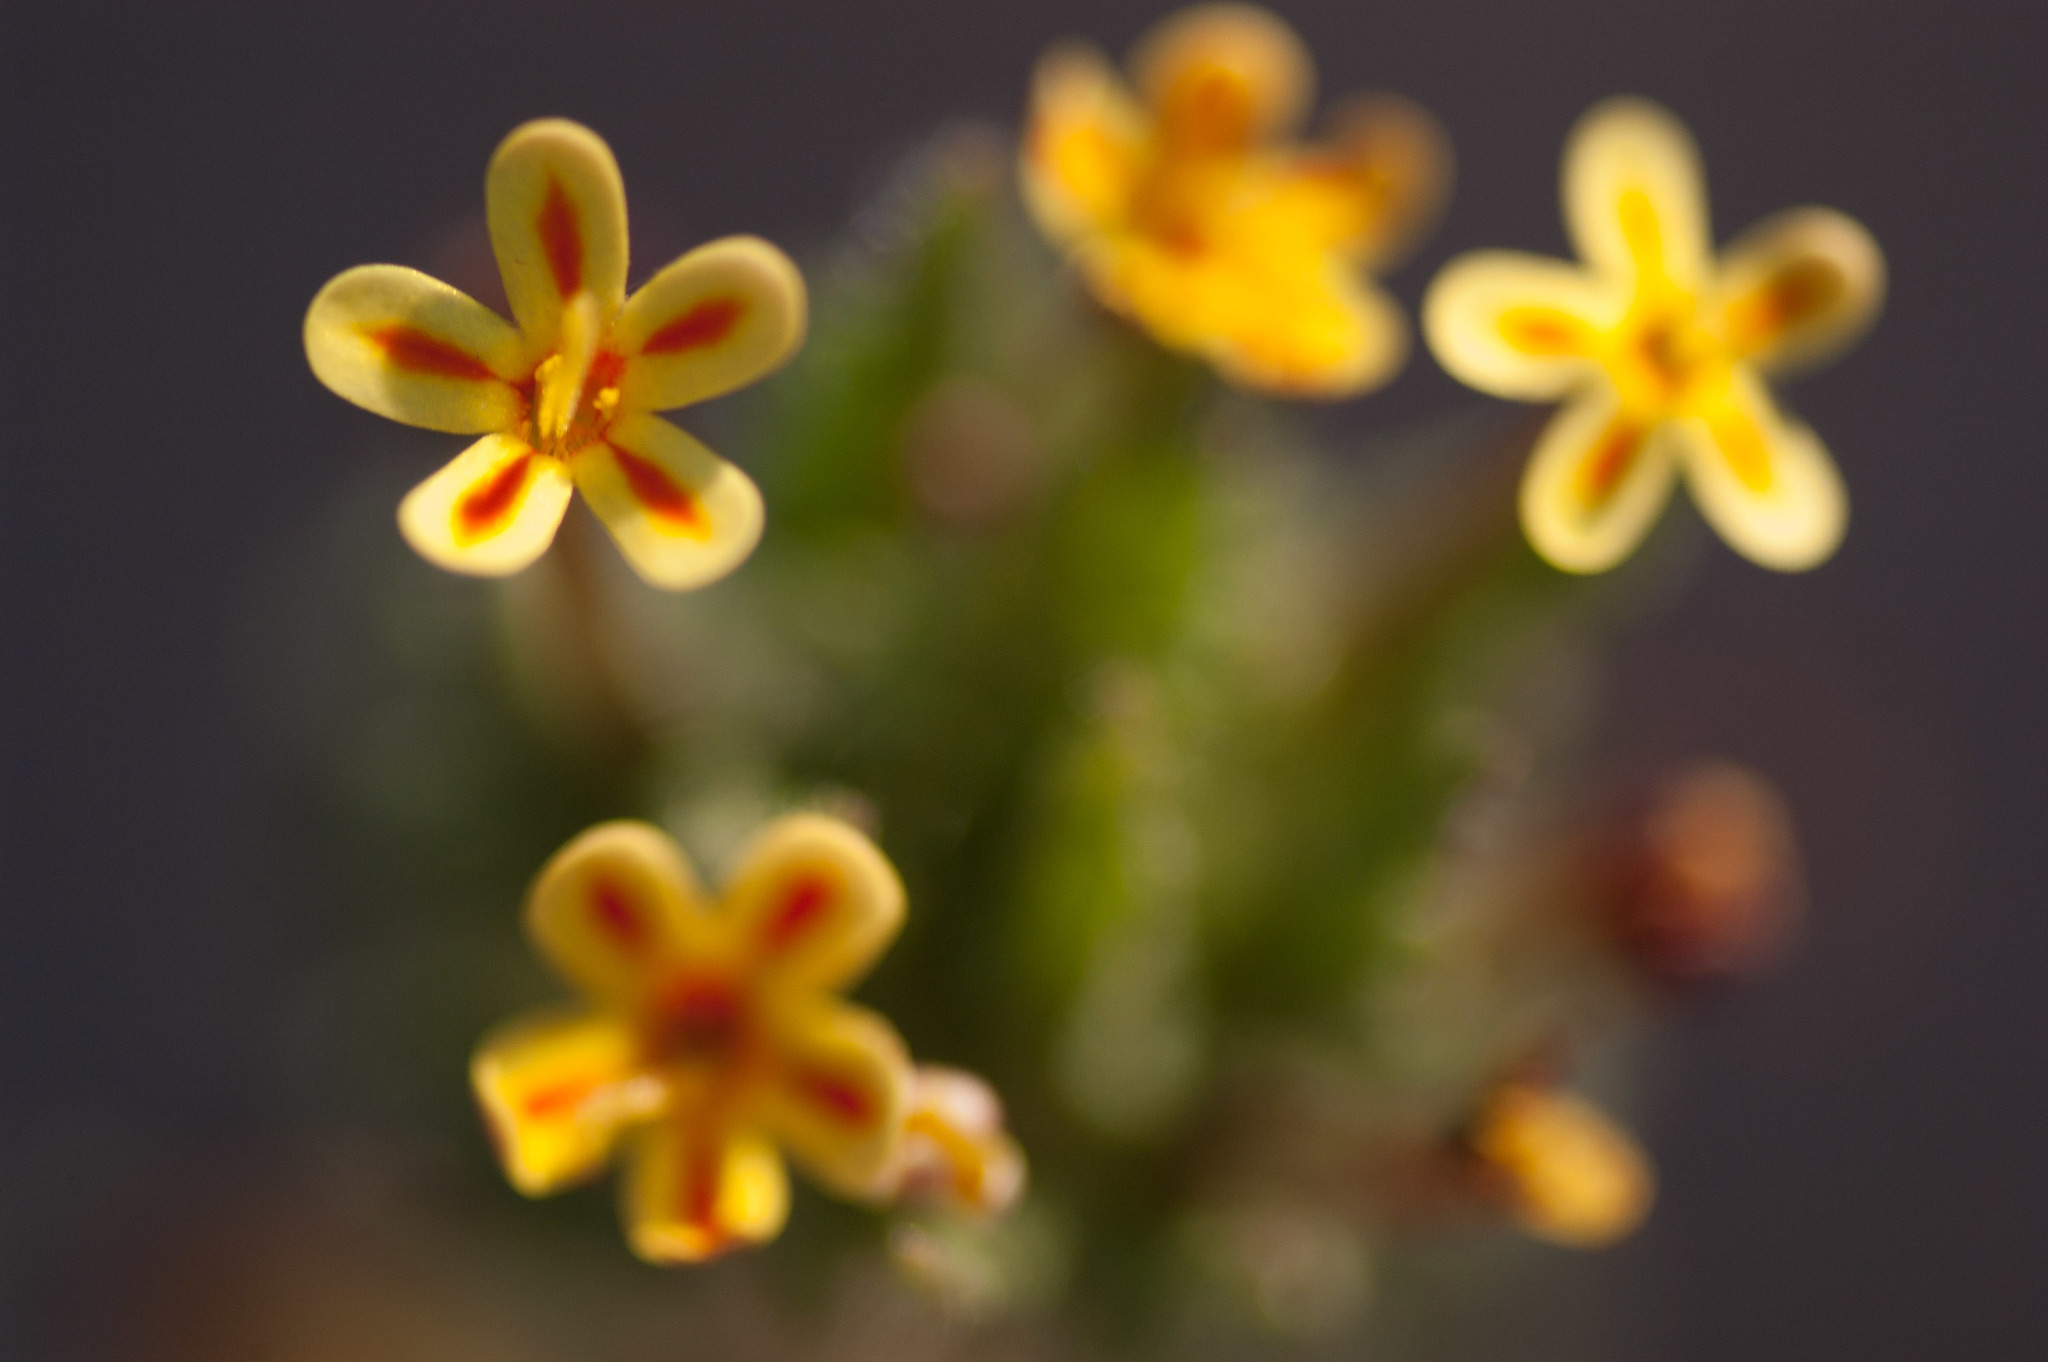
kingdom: Plantae
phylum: Tracheophyta
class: Magnoliopsida
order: Lamiales
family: Scrophulariaceae
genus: Zaluzianskya
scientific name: Zaluzianskya divaricata
